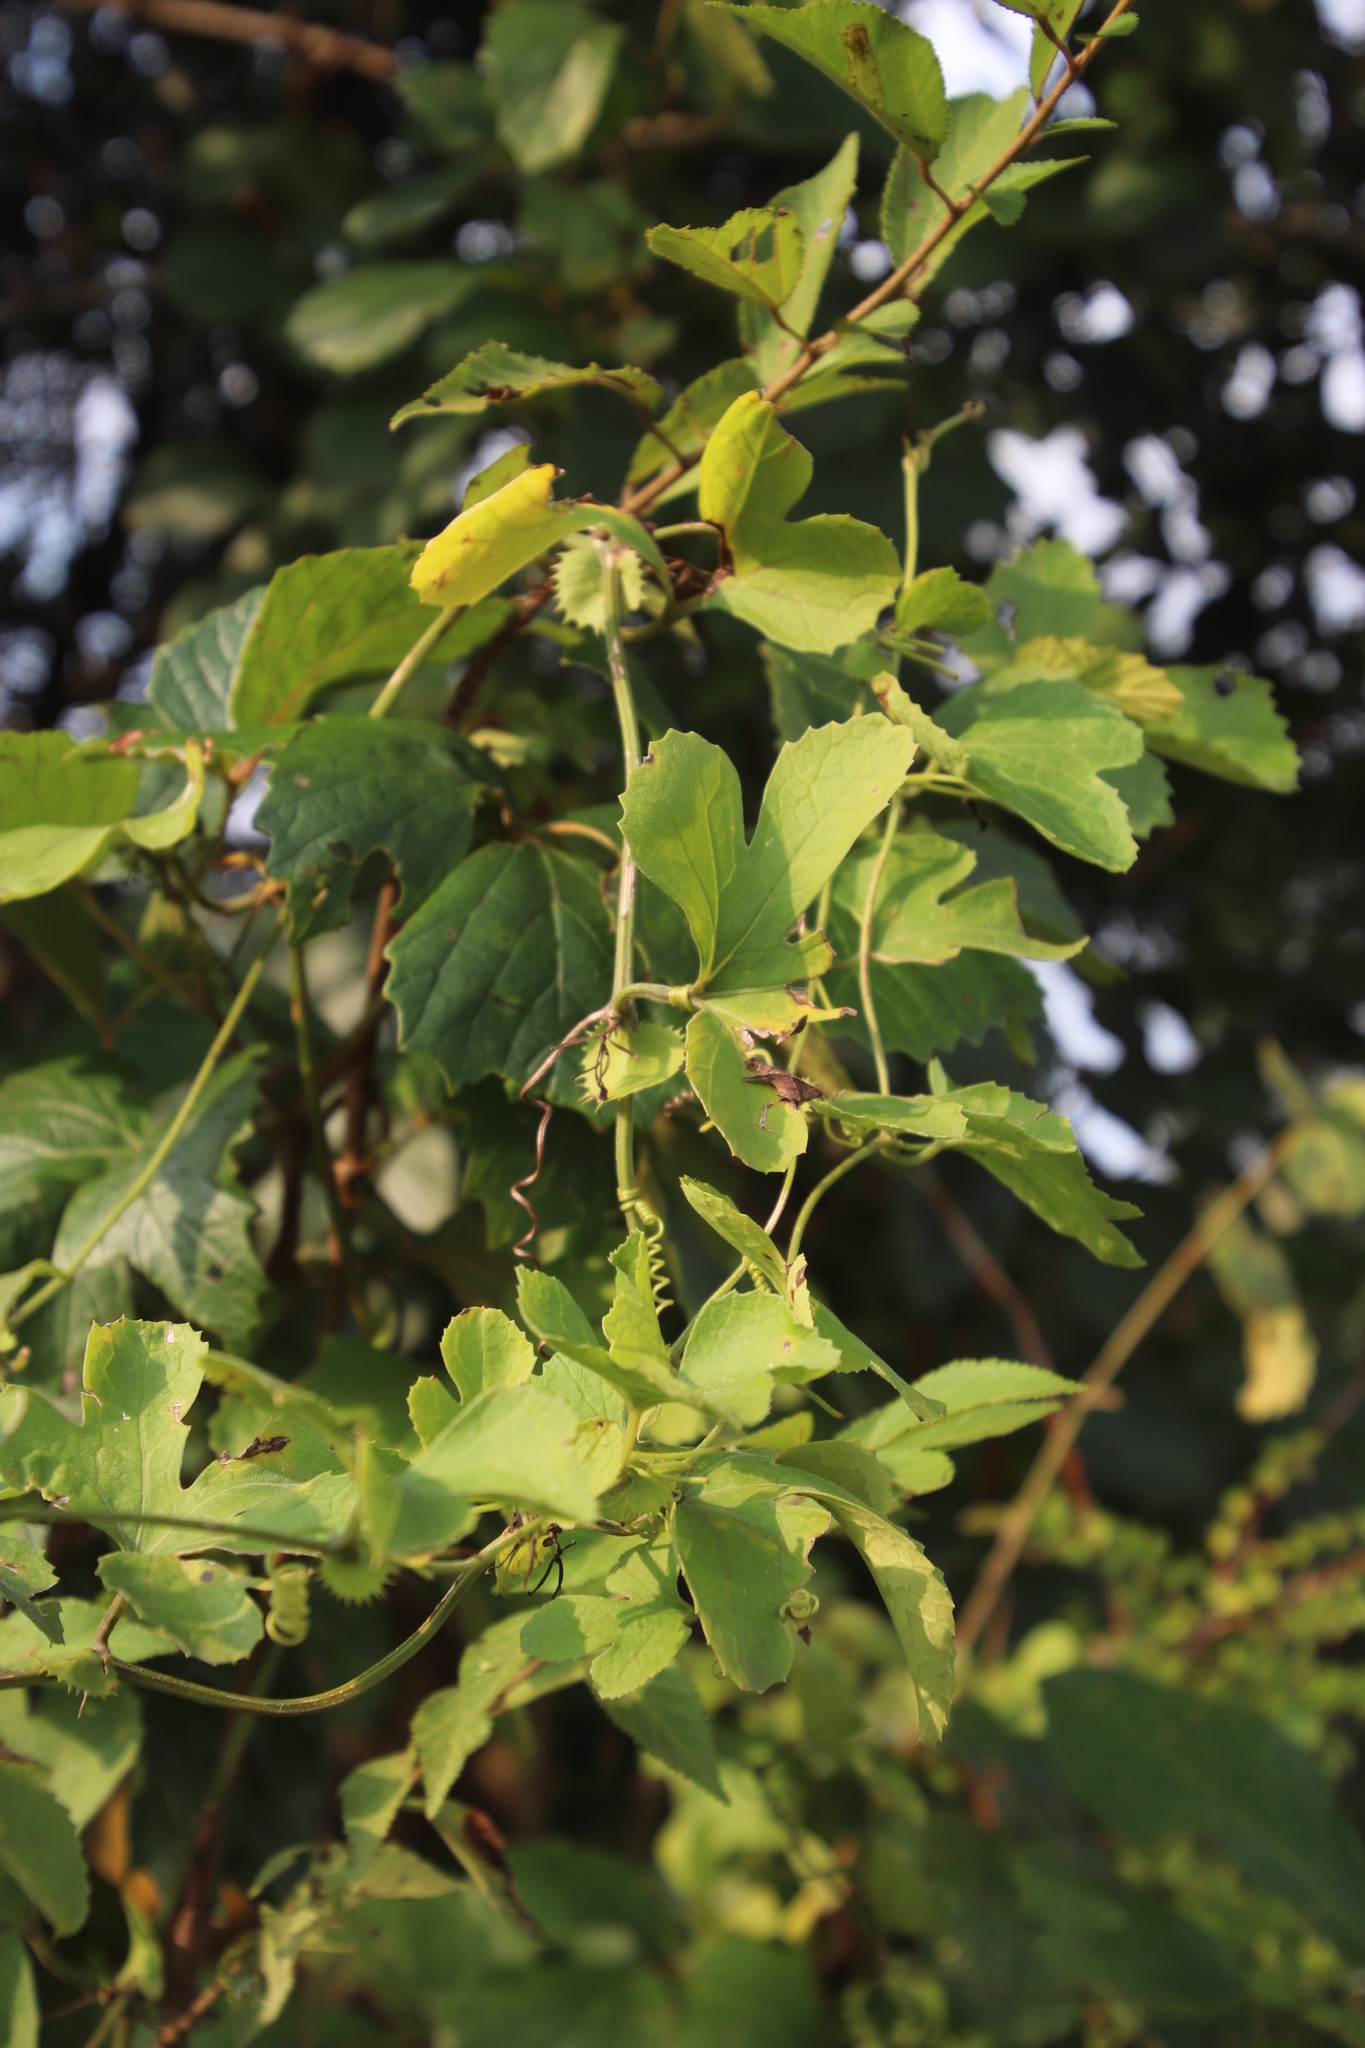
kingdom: Plantae
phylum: Tracheophyta
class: Magnoliopsida
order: Cucurbitales
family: Cucurbitaceae
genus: Trochomeria
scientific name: Trochomeria hookeri
